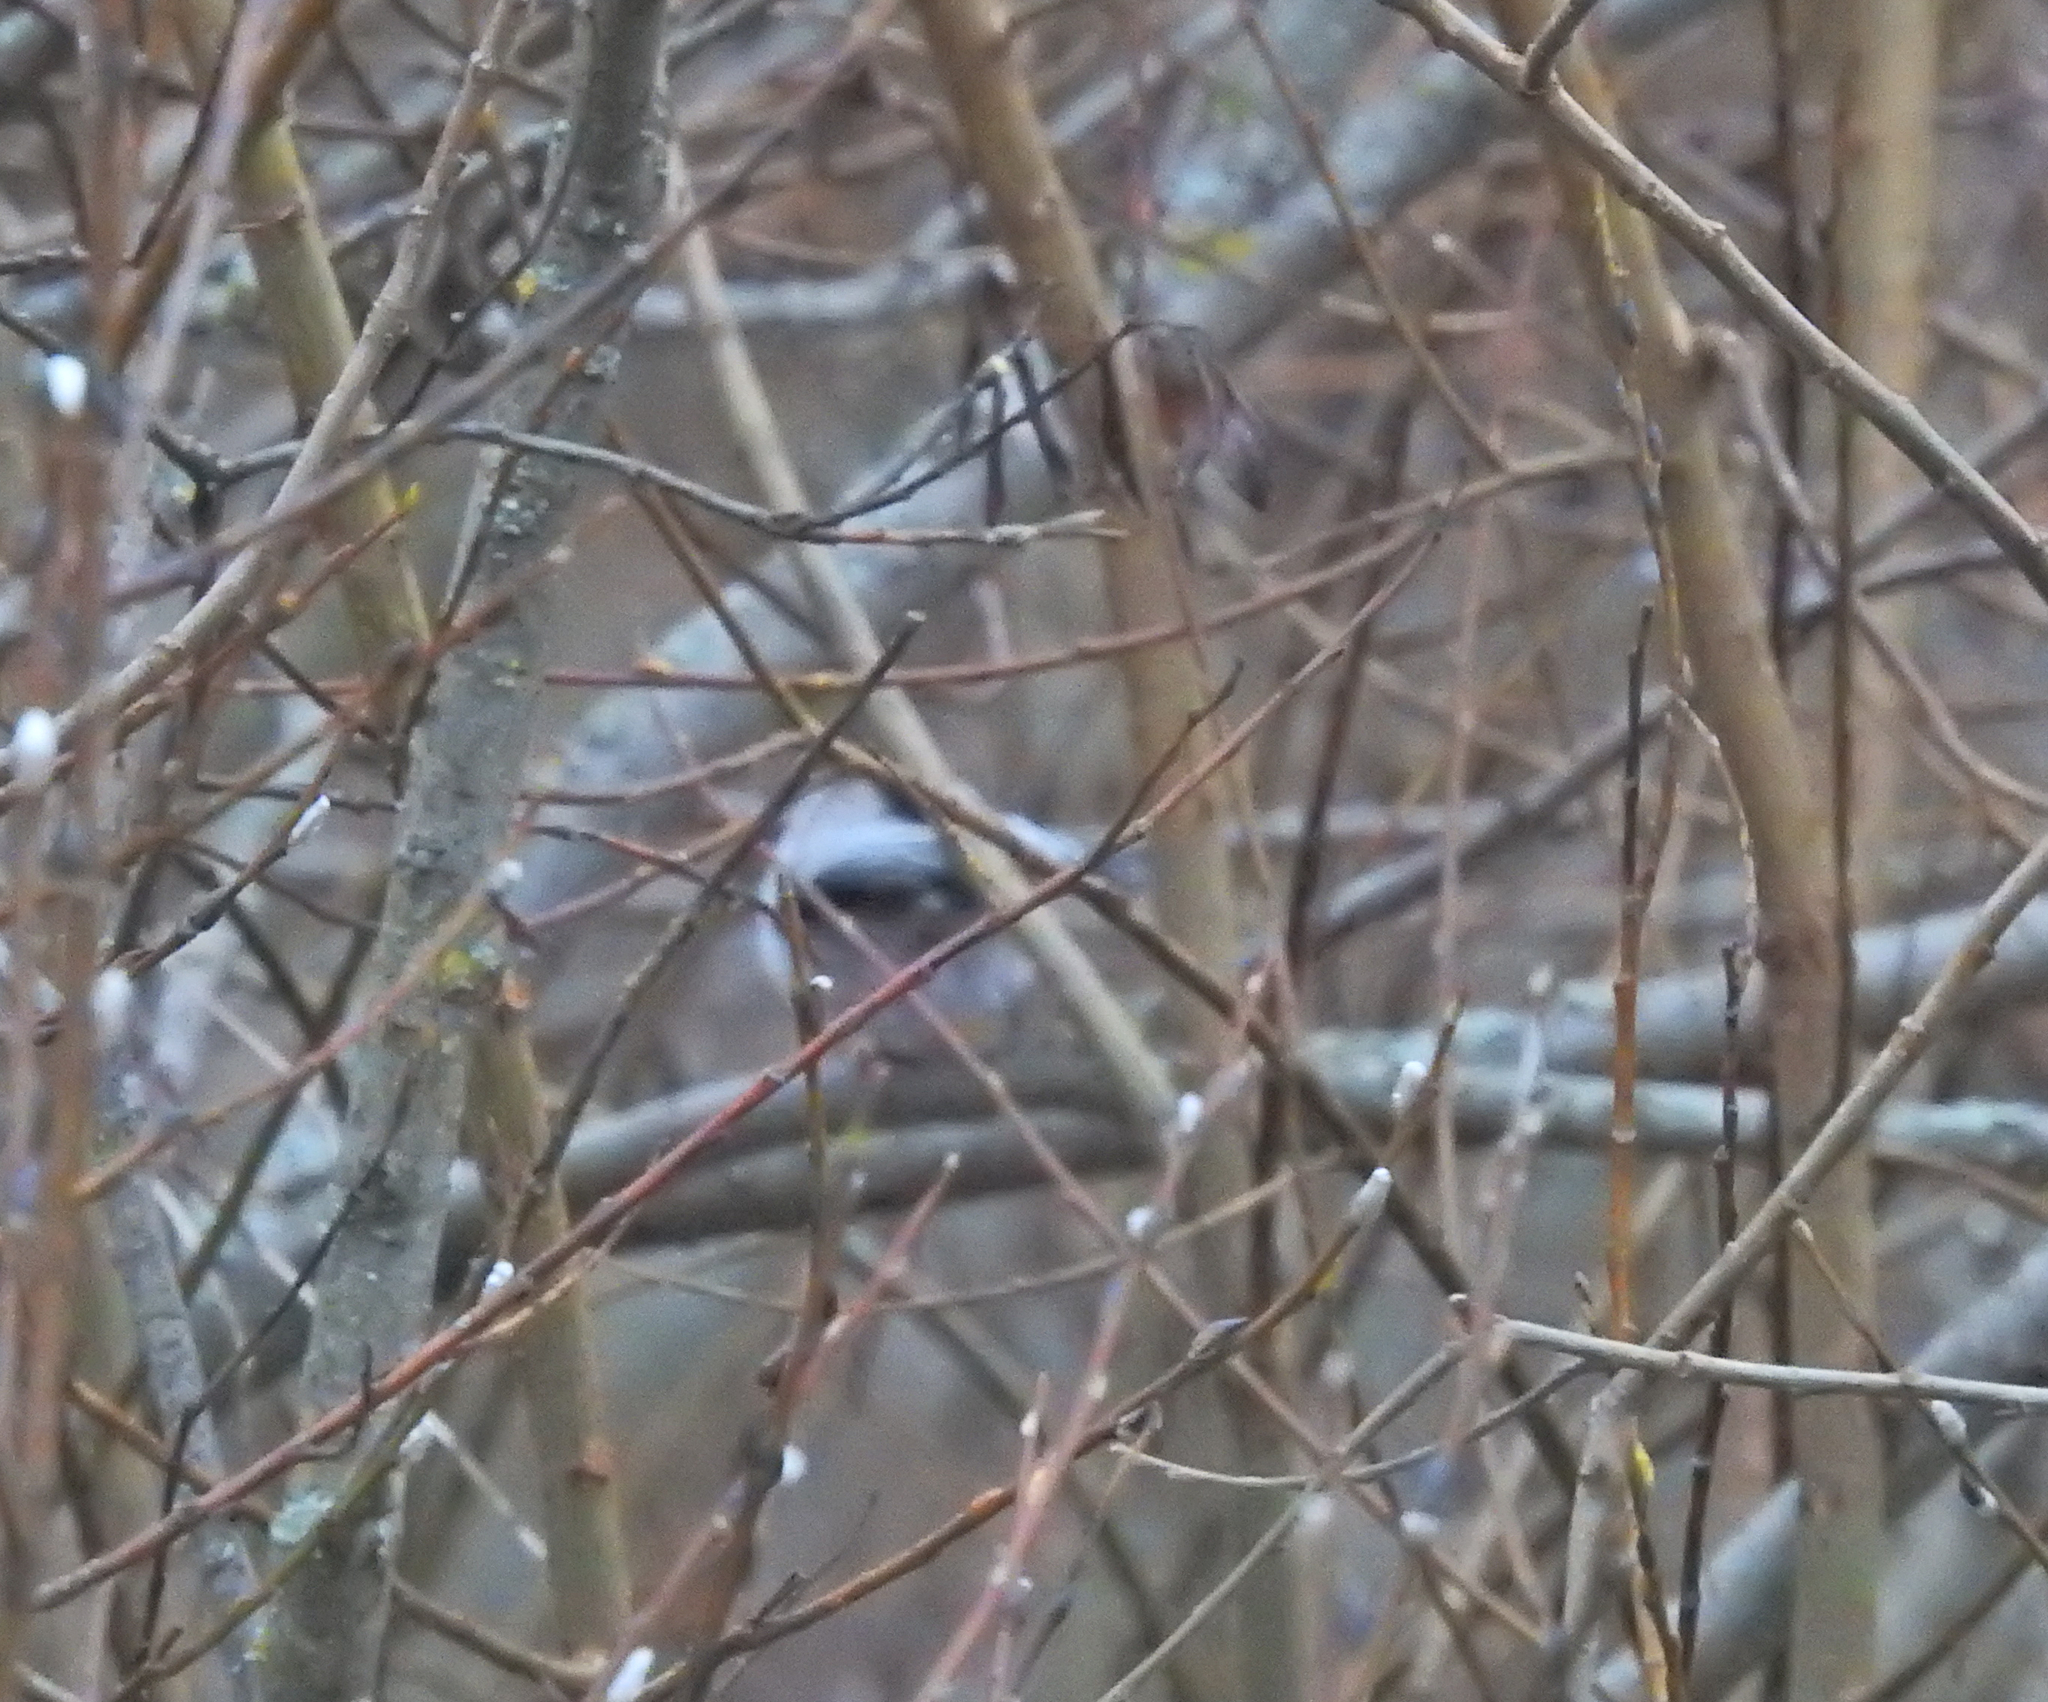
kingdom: Animalia
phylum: Chordata
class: Aves
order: Passeriformes
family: Aegithalidae
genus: Aegithalos
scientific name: Aegithalos caudatus
